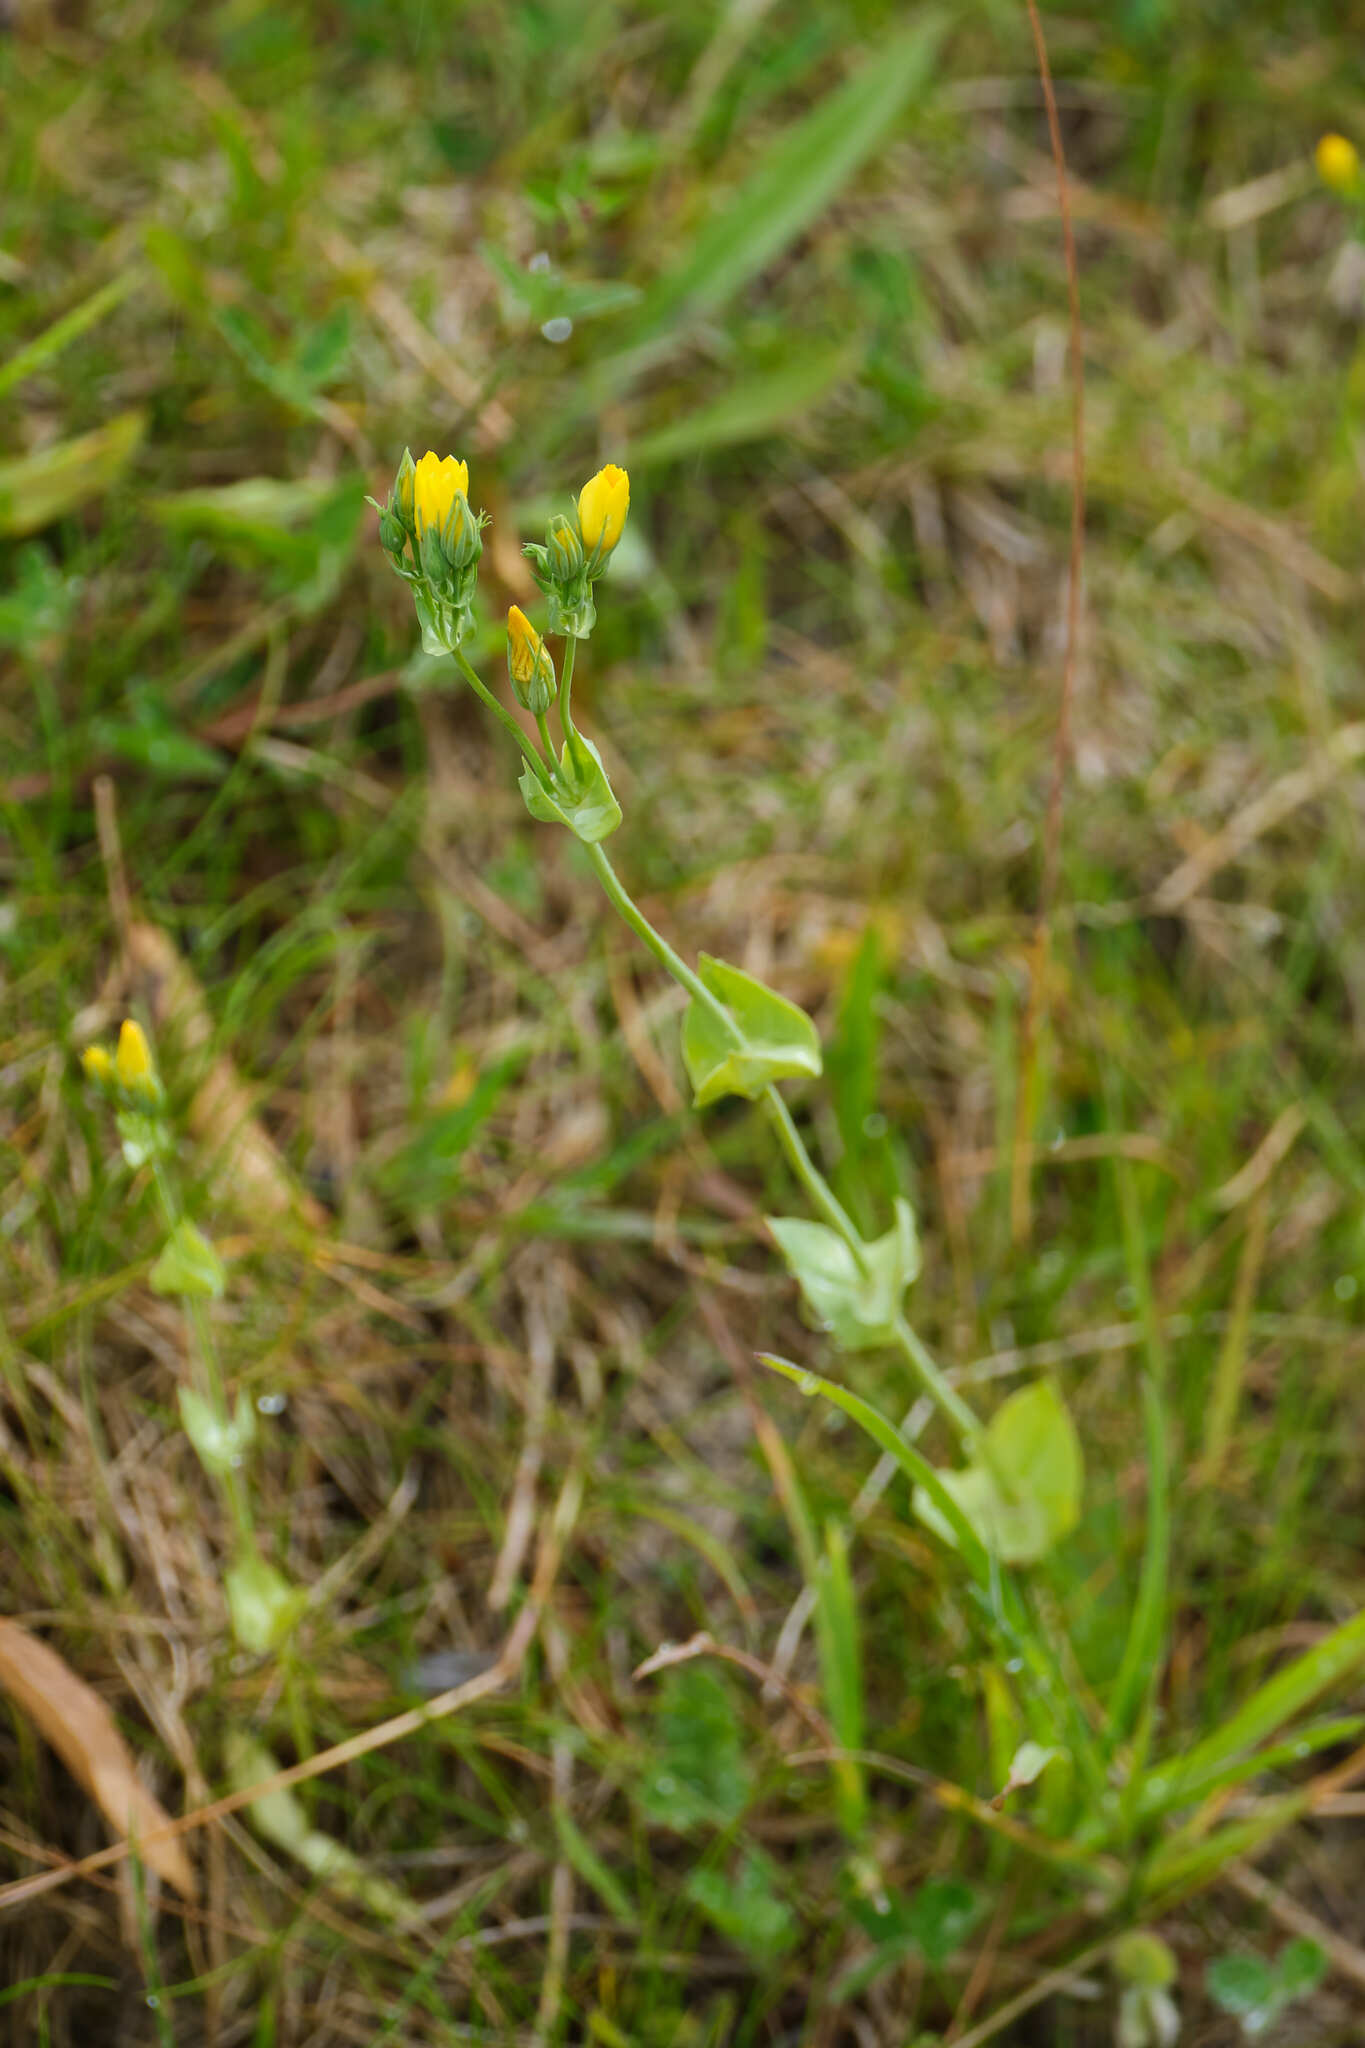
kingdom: Plantae
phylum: Tracheophyta
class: Magnoliopsida
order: Gentianales
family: Gentianaceae
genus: Blackstonia
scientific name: Blackstonia perfoliata
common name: Yellow-wort
